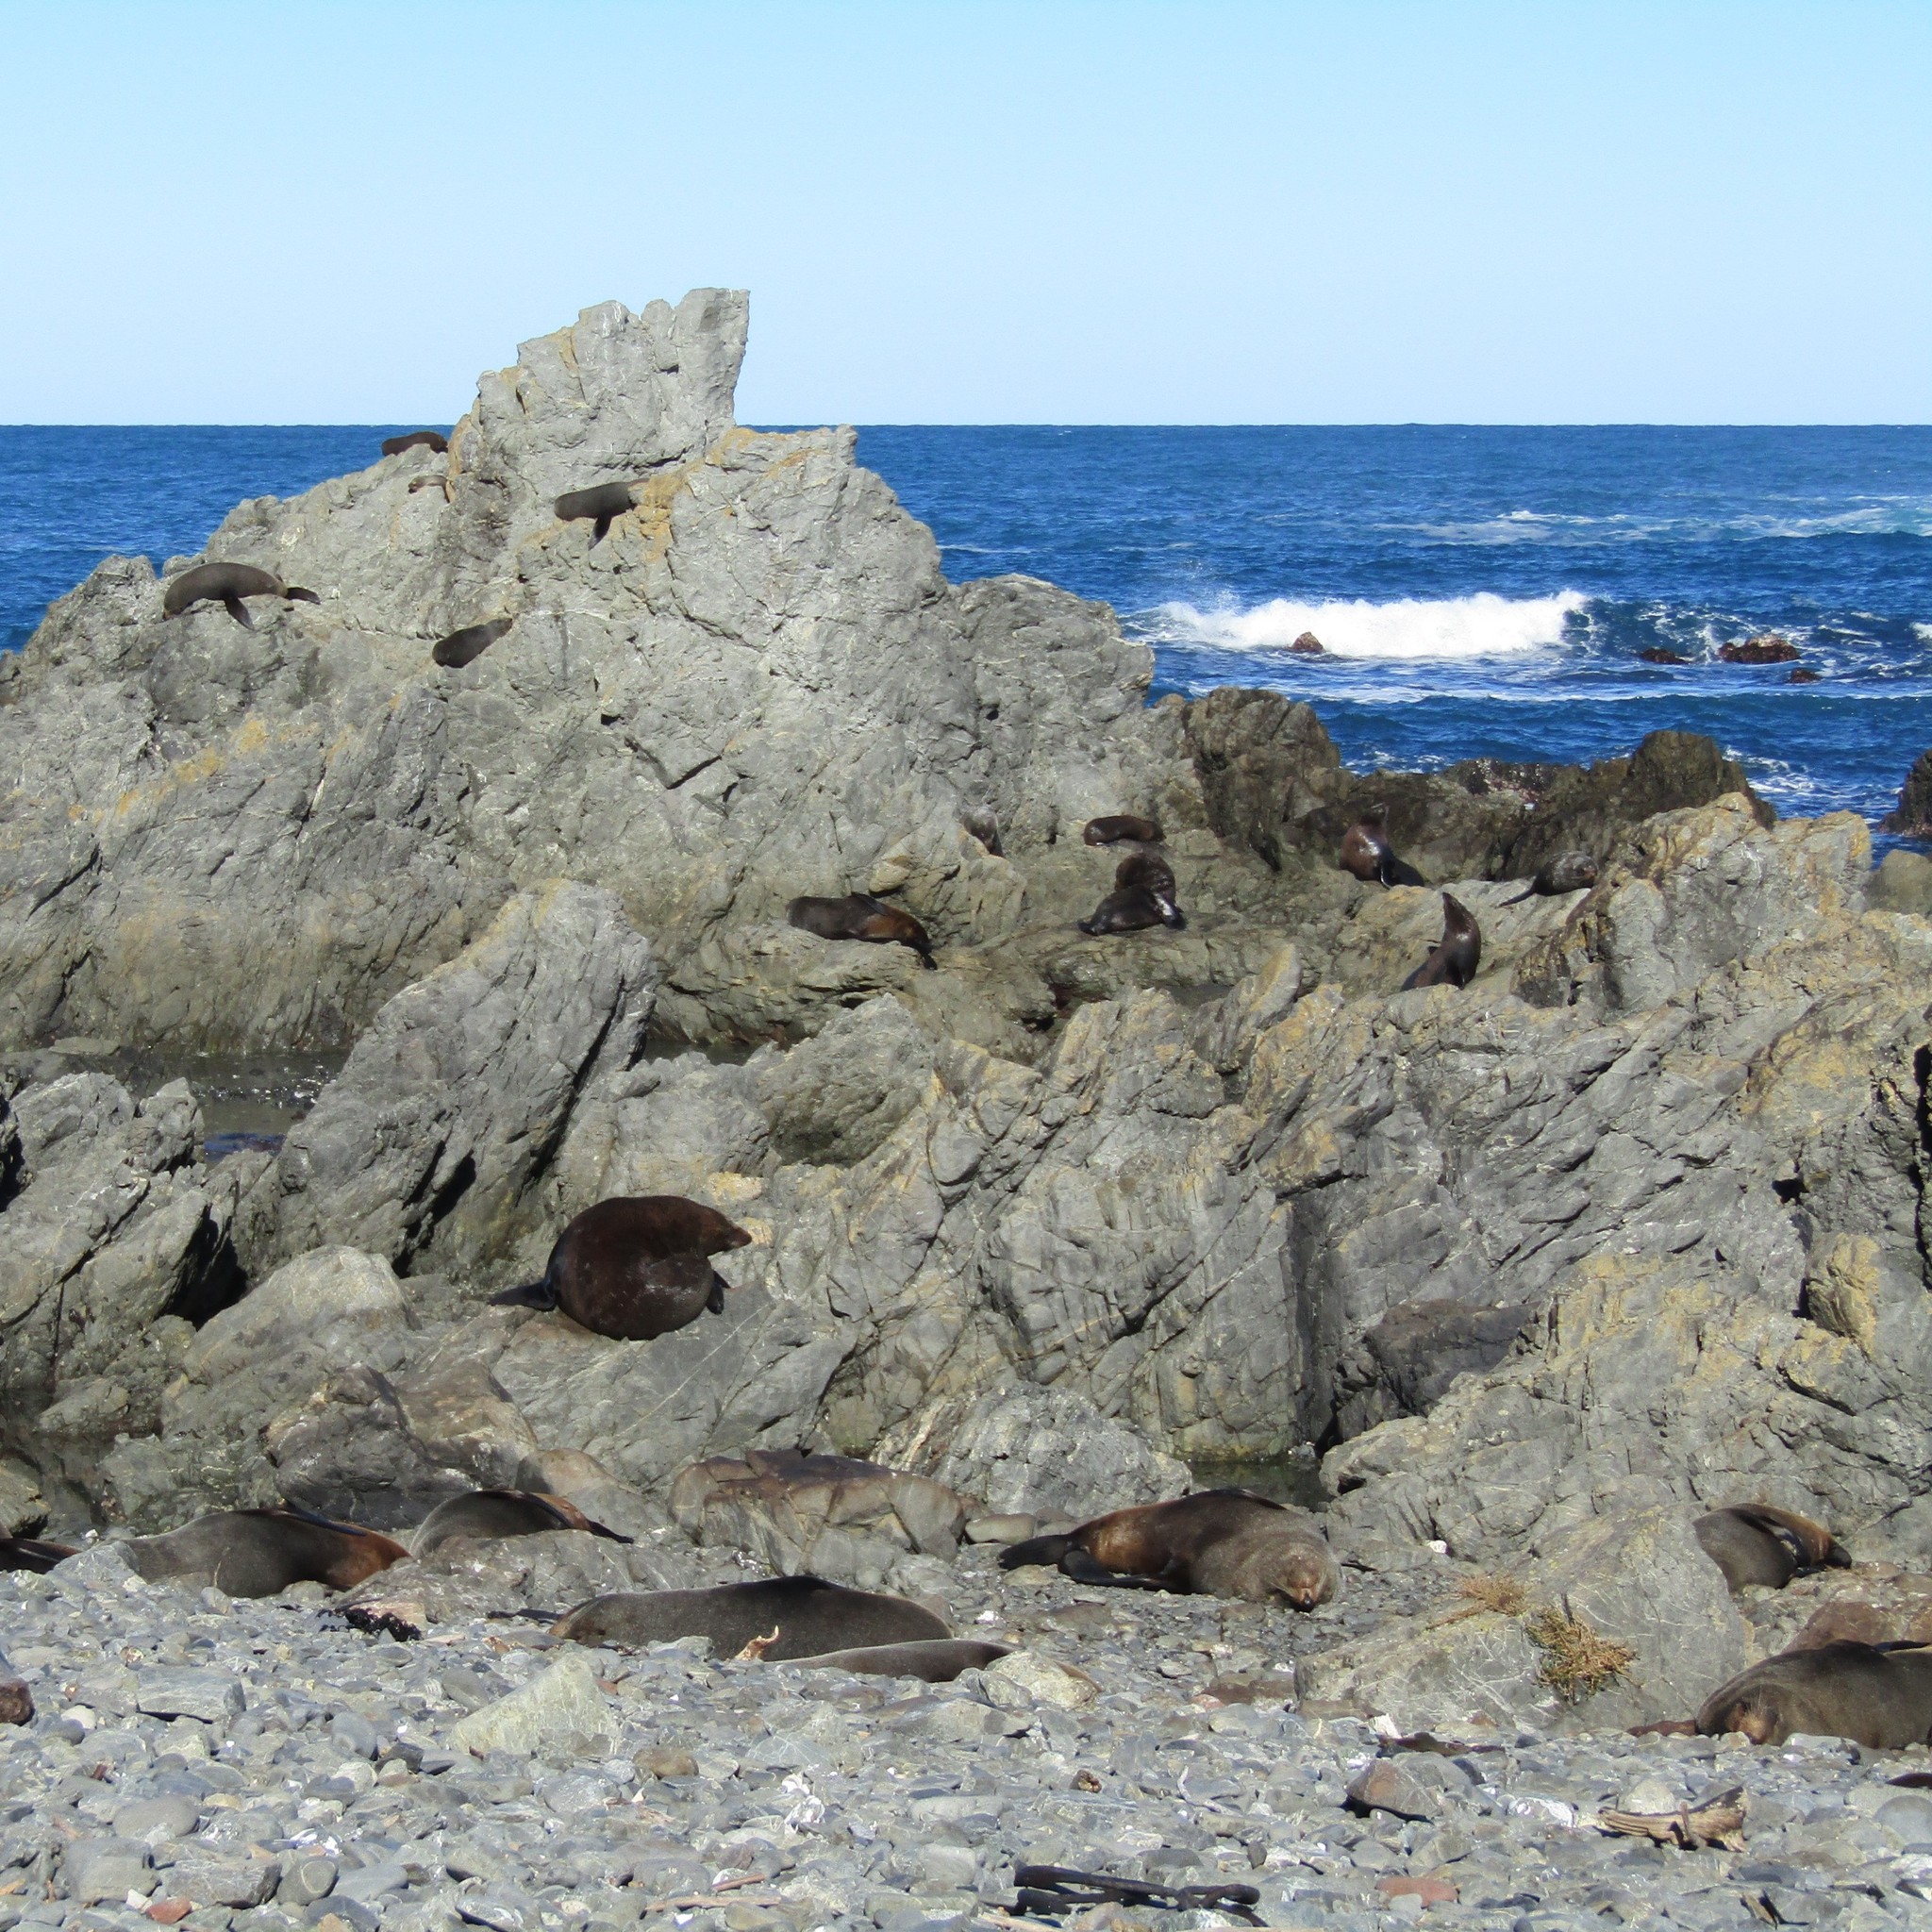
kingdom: Animalia
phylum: Chordata
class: Mammalia
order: Carnivora
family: Otariidae
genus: Arctocephalus
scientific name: Arctocephalus forsteri
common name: New zealand fur seal
